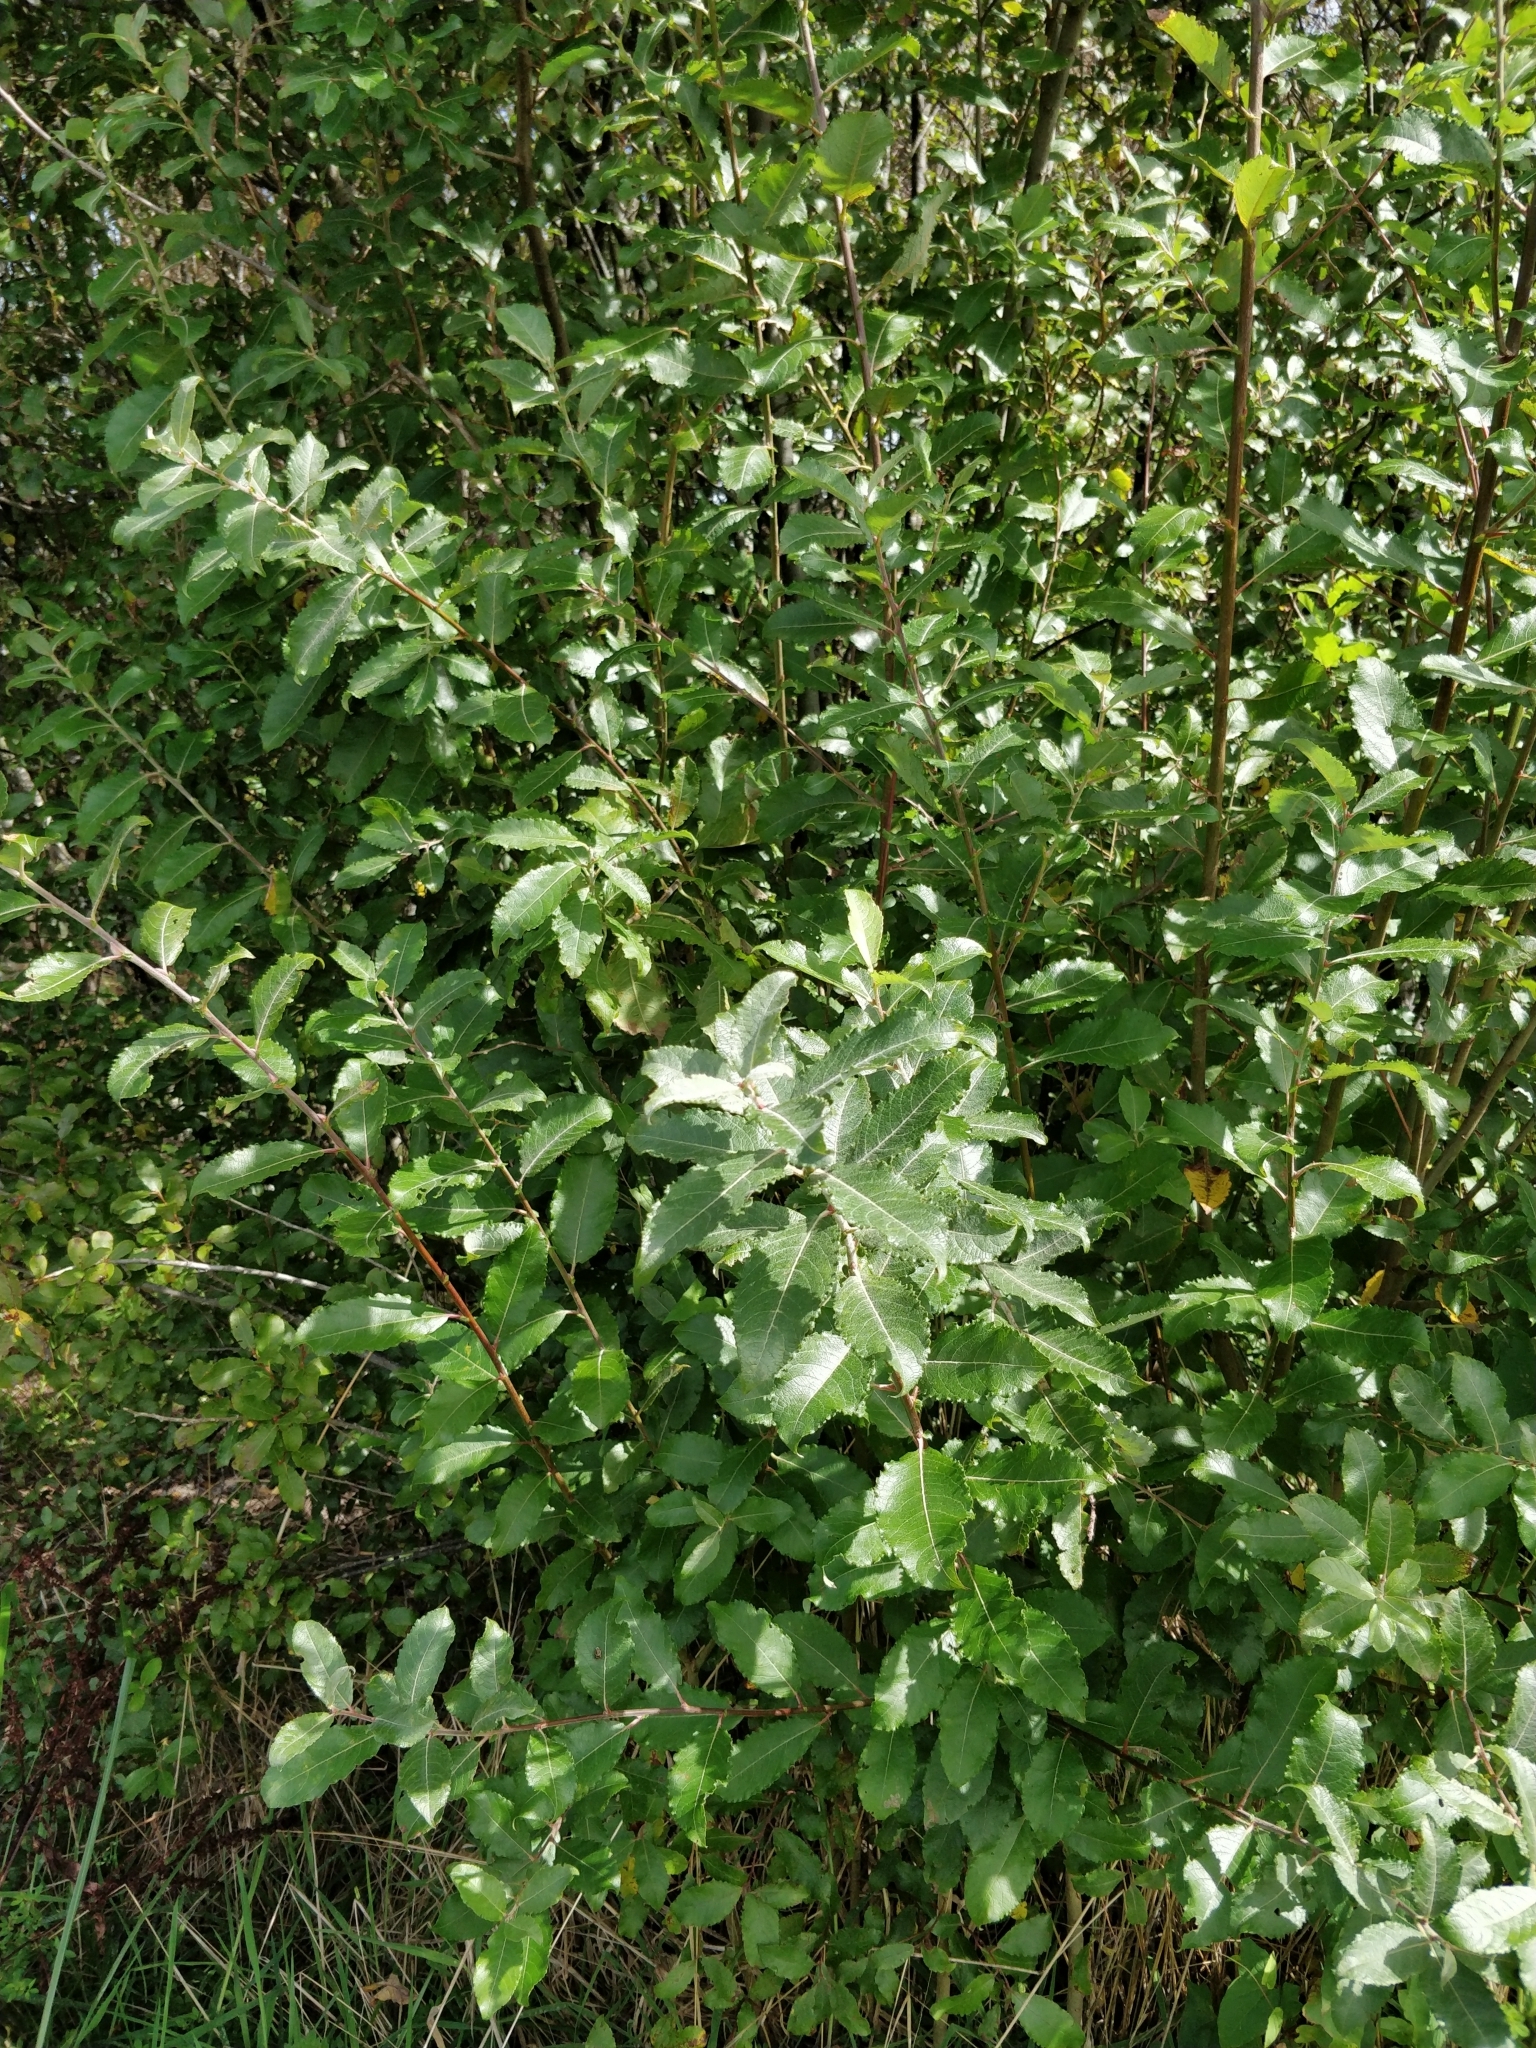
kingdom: Plantae
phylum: Tracheophyta
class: Magnoliopsida
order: Malpighiales
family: Salicaceae
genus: Salix
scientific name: Salix cinerea
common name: Common sallow
